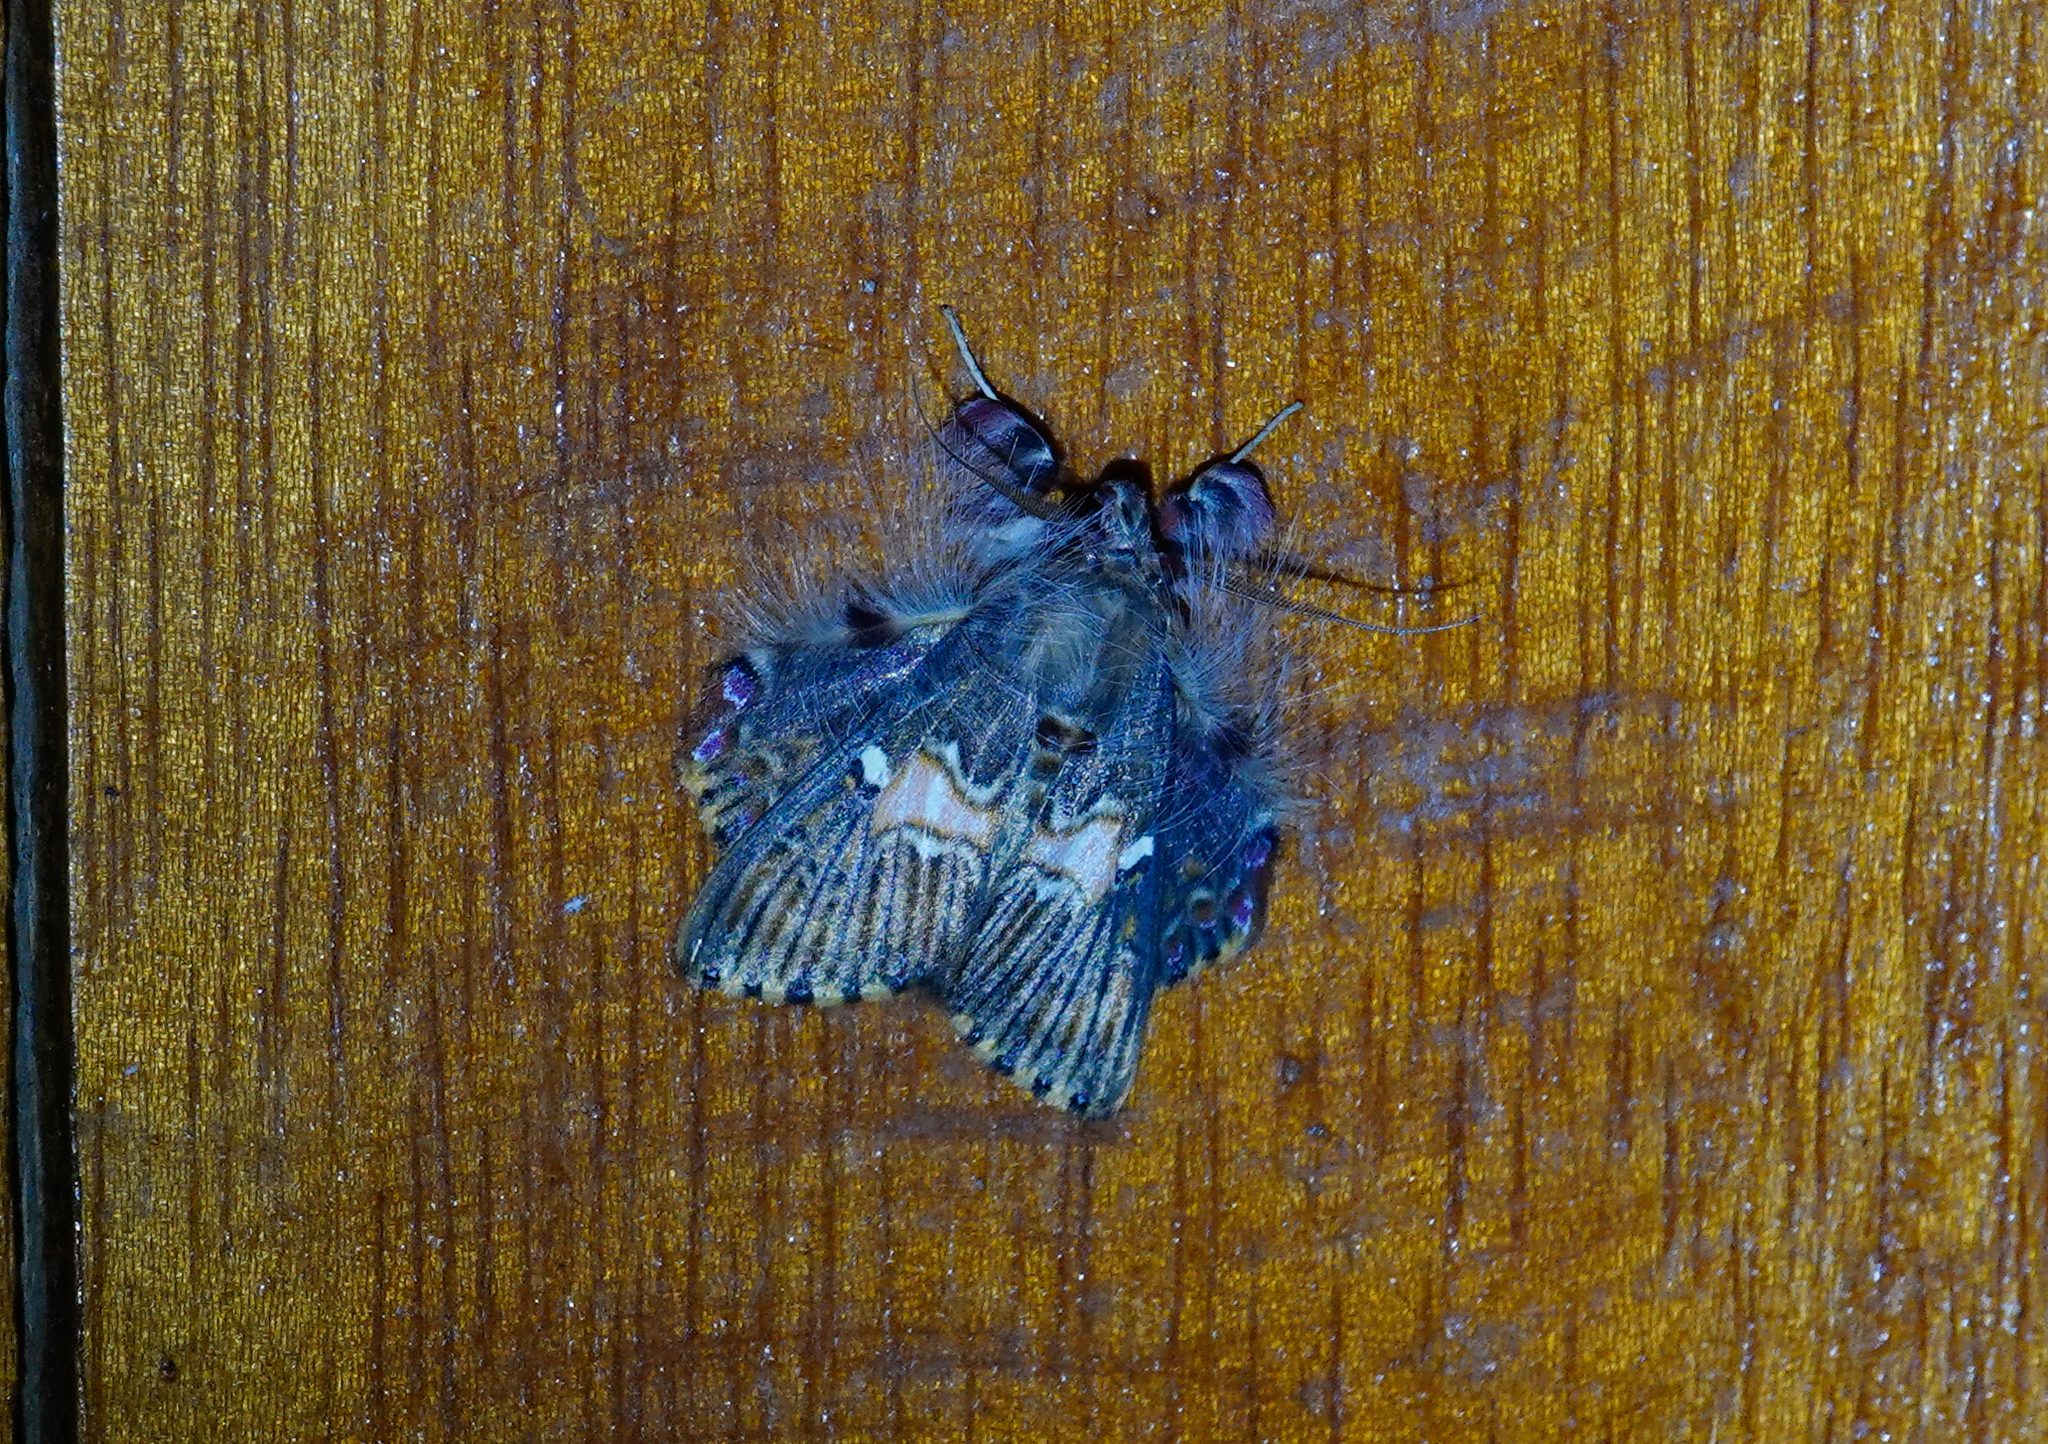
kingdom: Animalia
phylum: Arthropoda
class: Insecta
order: Lepidoptera
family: Erebidae
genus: Sosxetra
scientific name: Sosxetra grata
